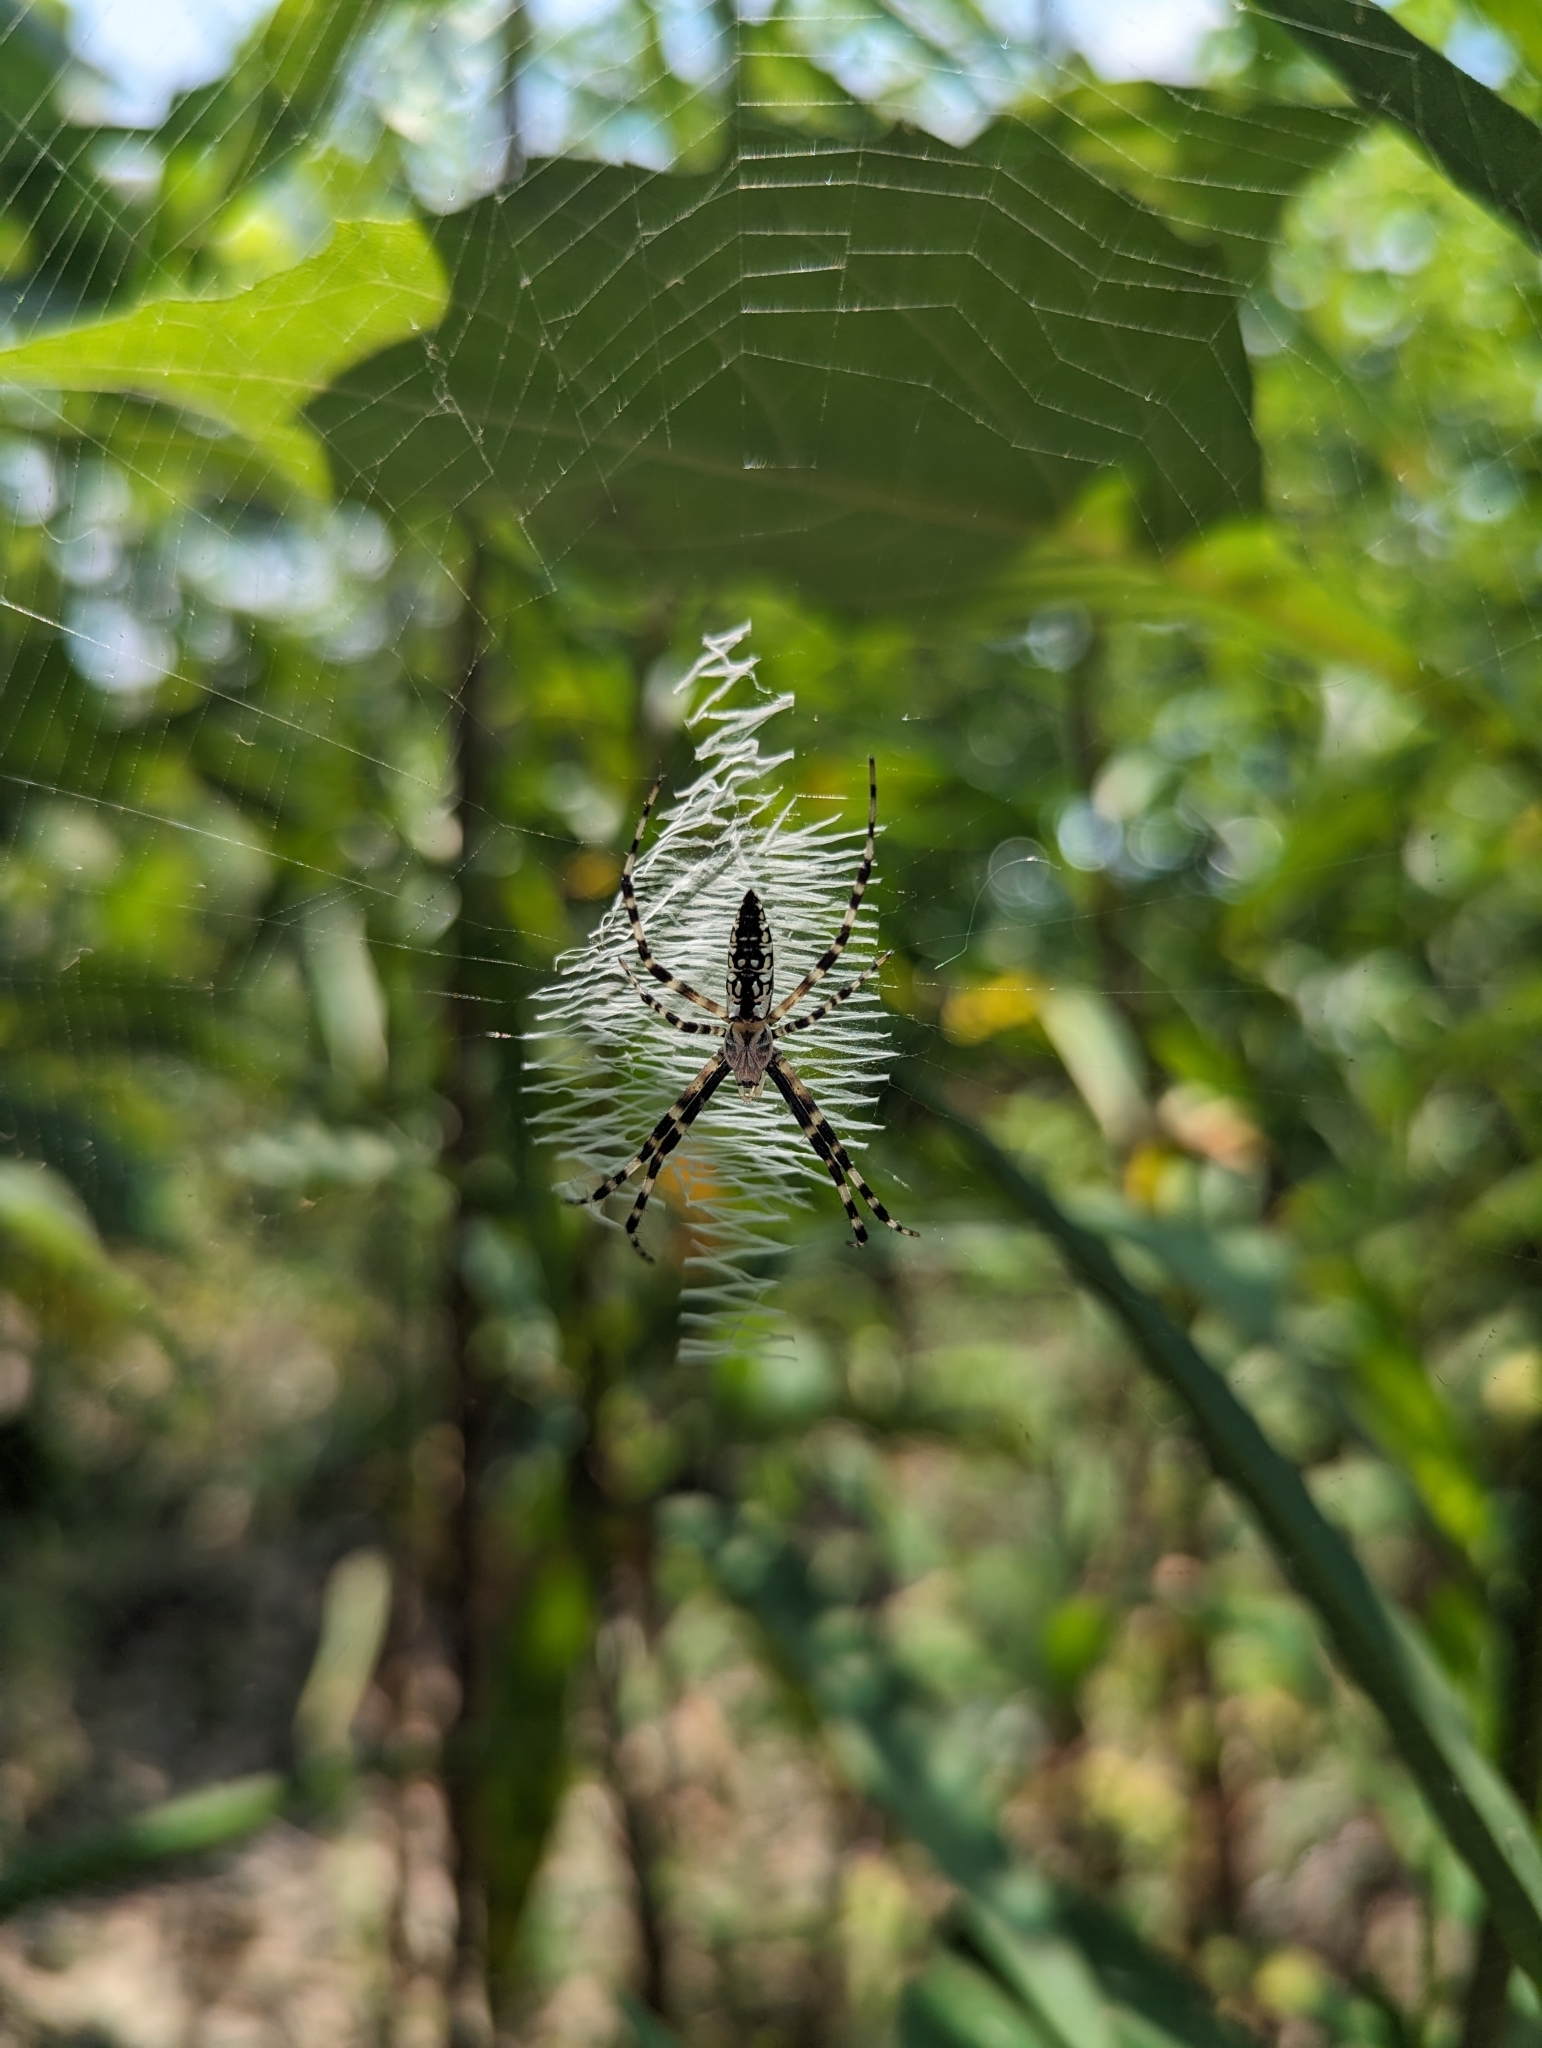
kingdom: Animalia
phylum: Arthropoda
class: Arachnida
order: Araneae
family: Araneidae
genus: Argiope
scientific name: Argiope aurantia
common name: Orb weavers
